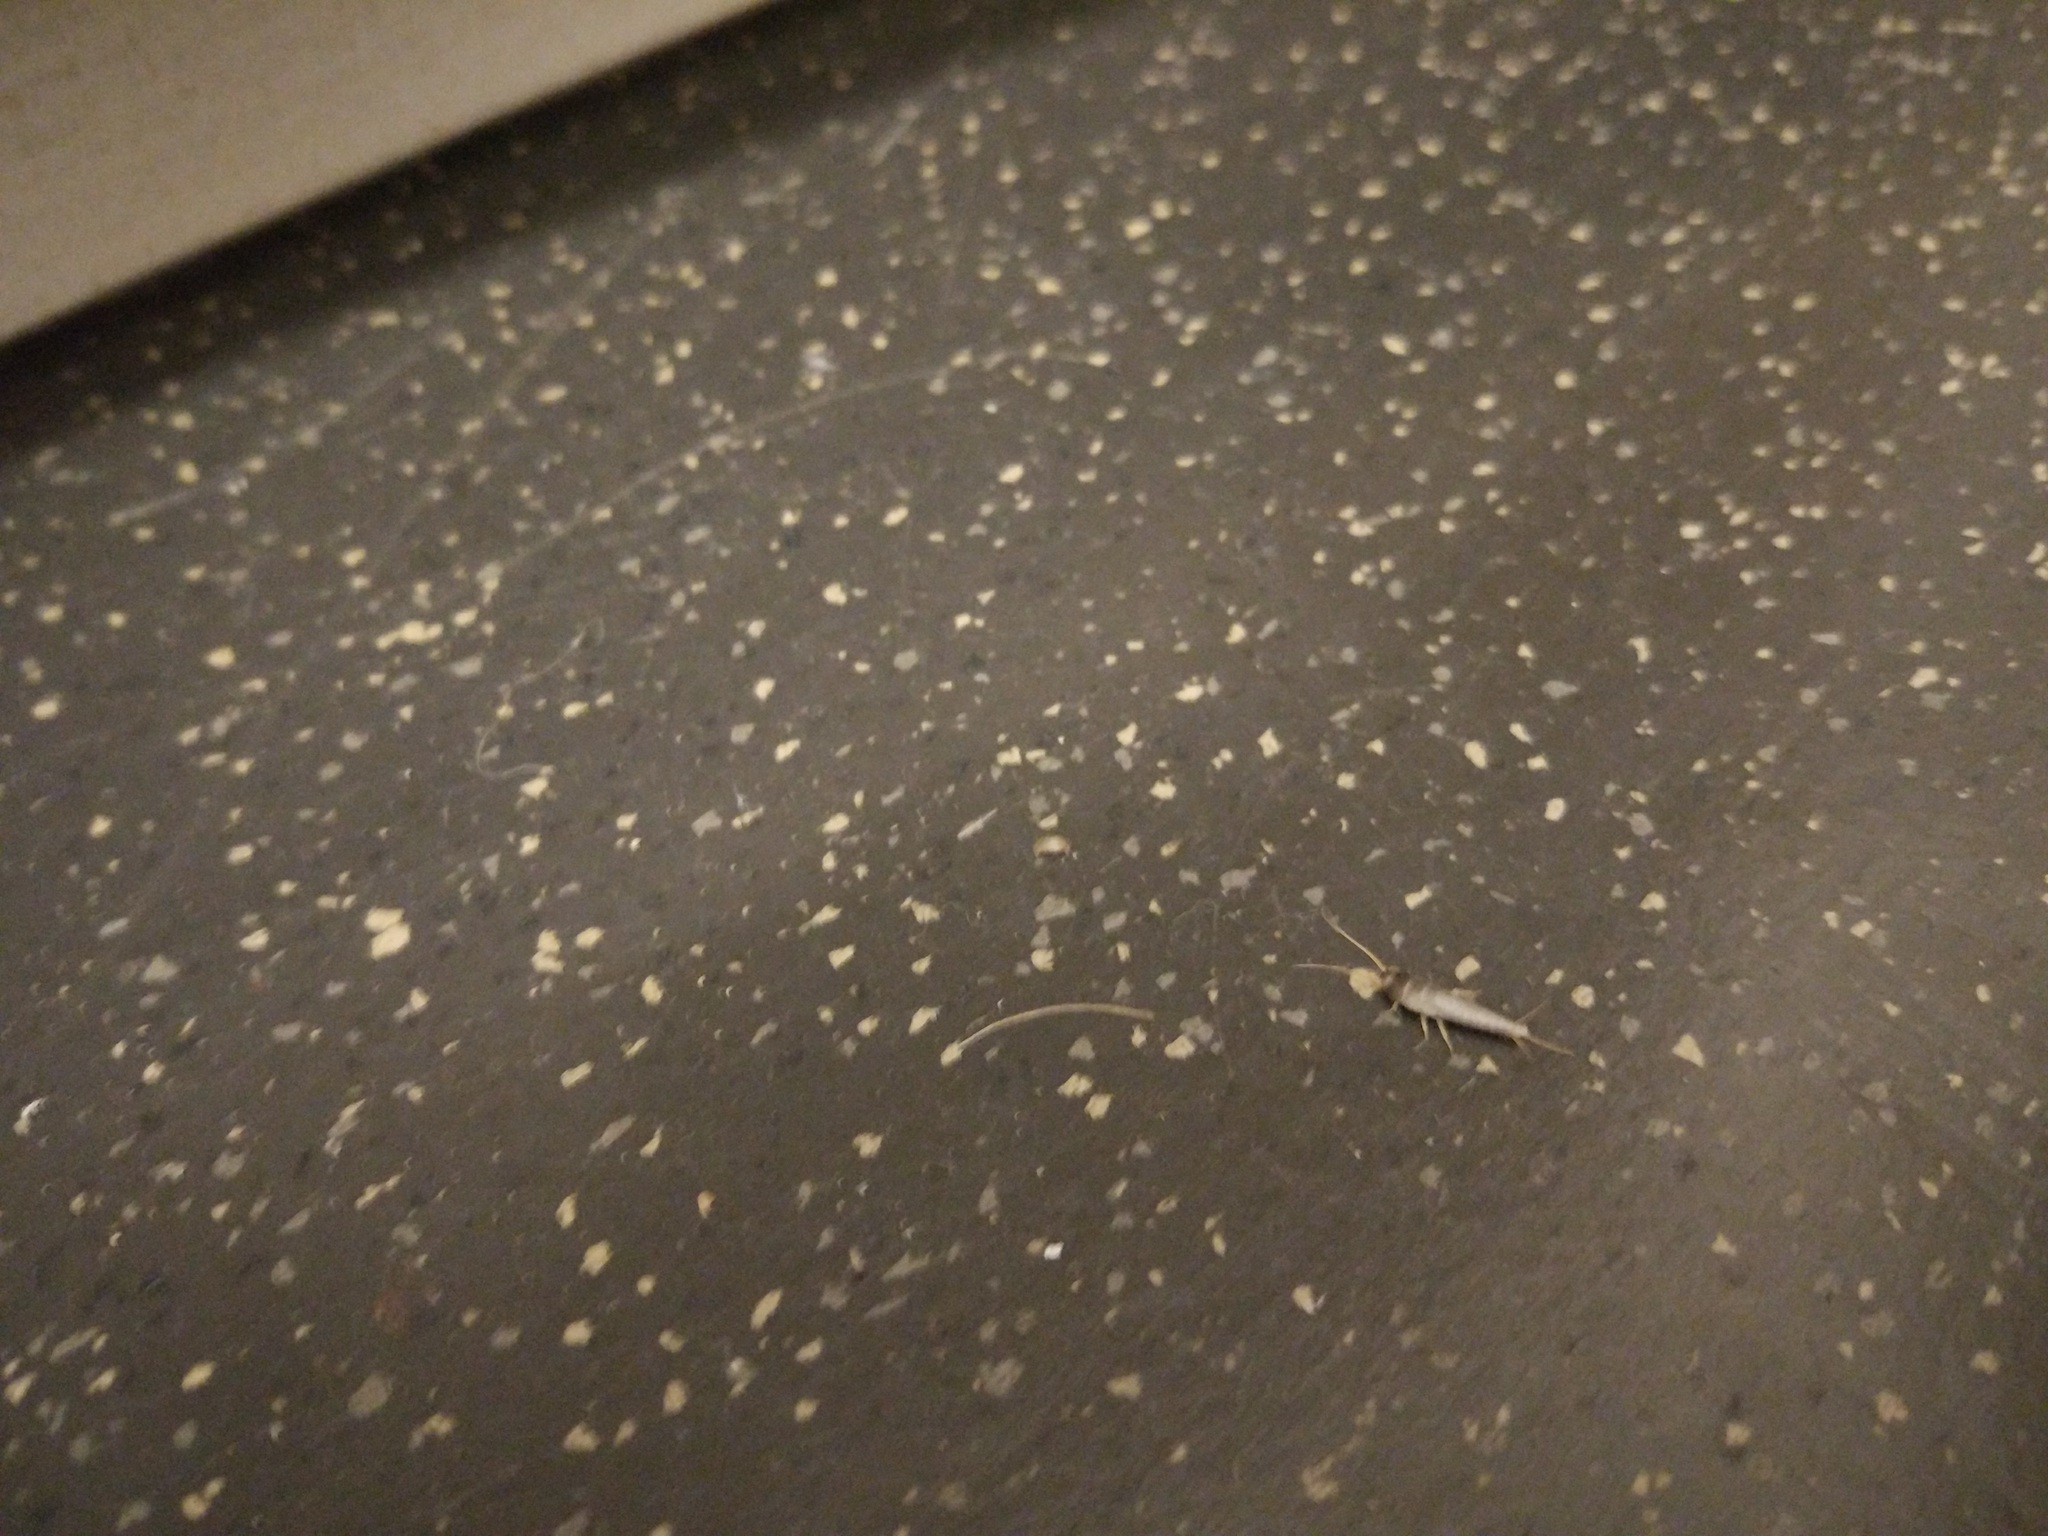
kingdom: Animalia
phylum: Arthropoda
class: Insecta
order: Zygentoma
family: Lepismatidae
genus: Lepisma
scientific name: Lepisma saccharinum
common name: Silverfish
